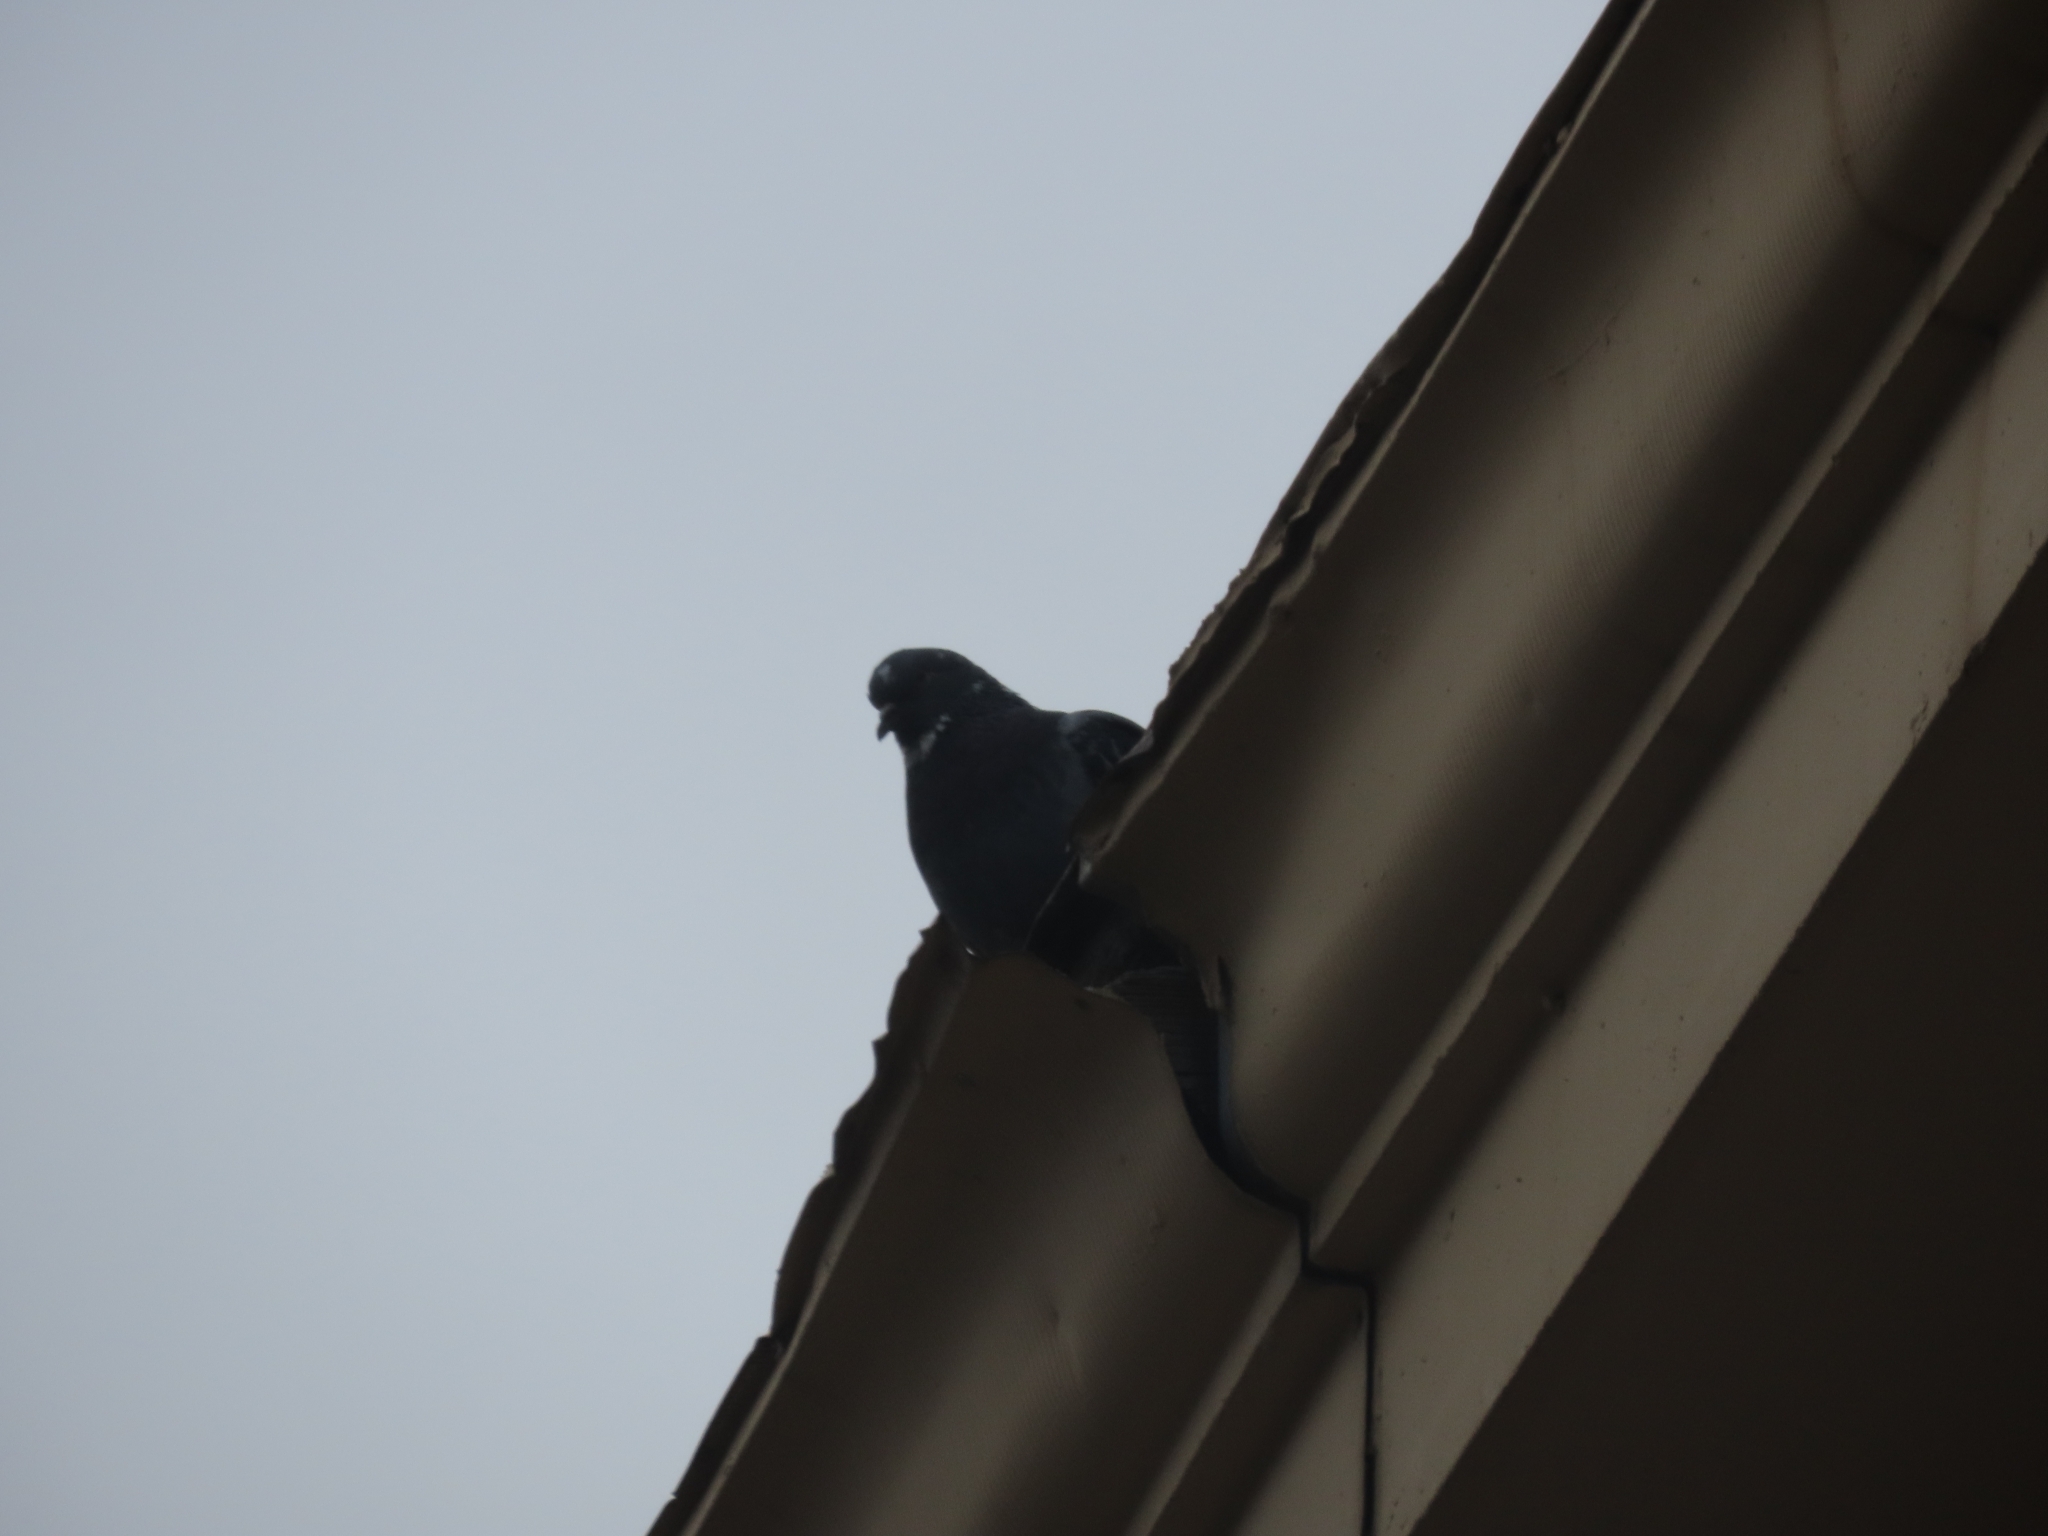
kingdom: Animalia
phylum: Chordata
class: Aves
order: Columbiformes
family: Columbidae
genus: Columba
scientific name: Columba livia
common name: Rock pigeon
